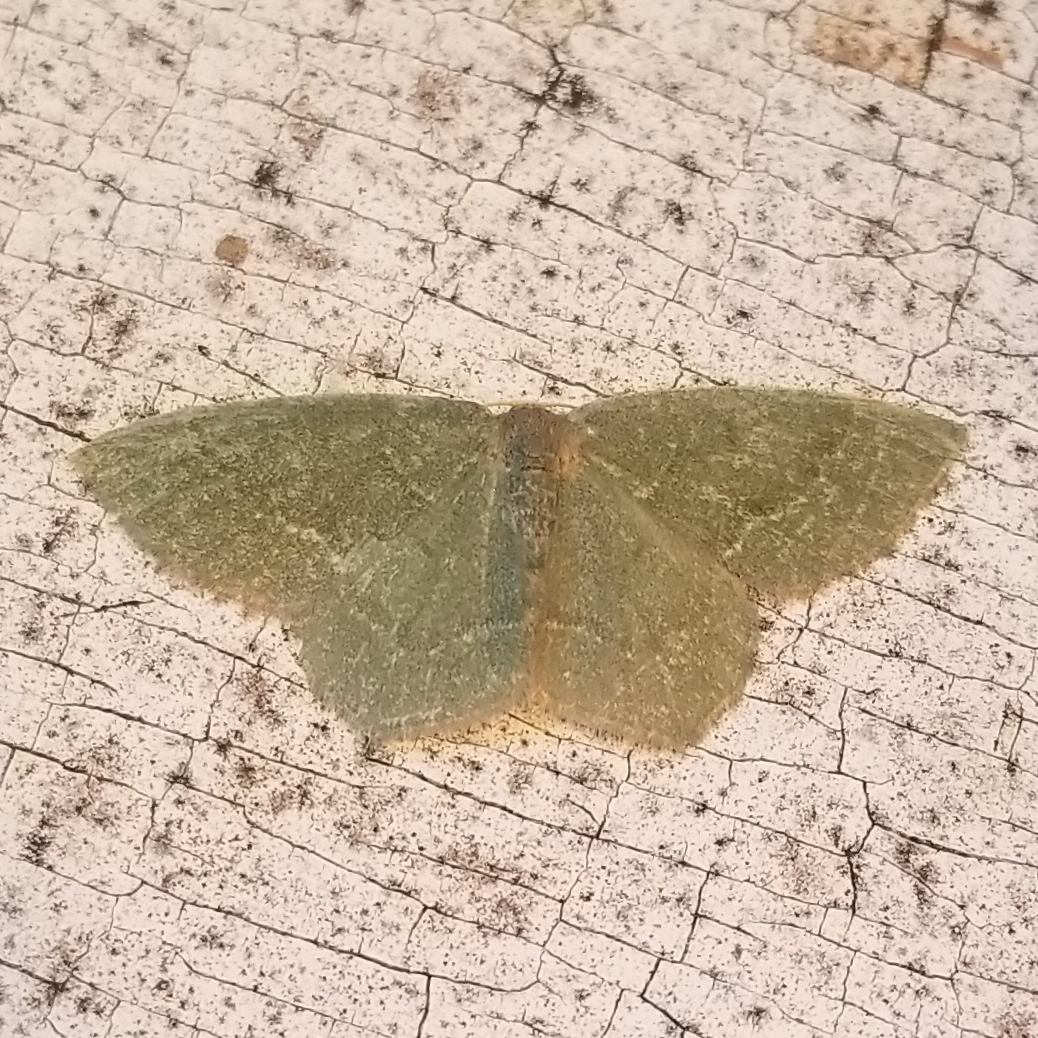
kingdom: Animalia
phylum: Arthropoda
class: Insecta
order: Lepidoptera
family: Geometridae
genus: Thalera
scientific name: Thalera pistasciaria
